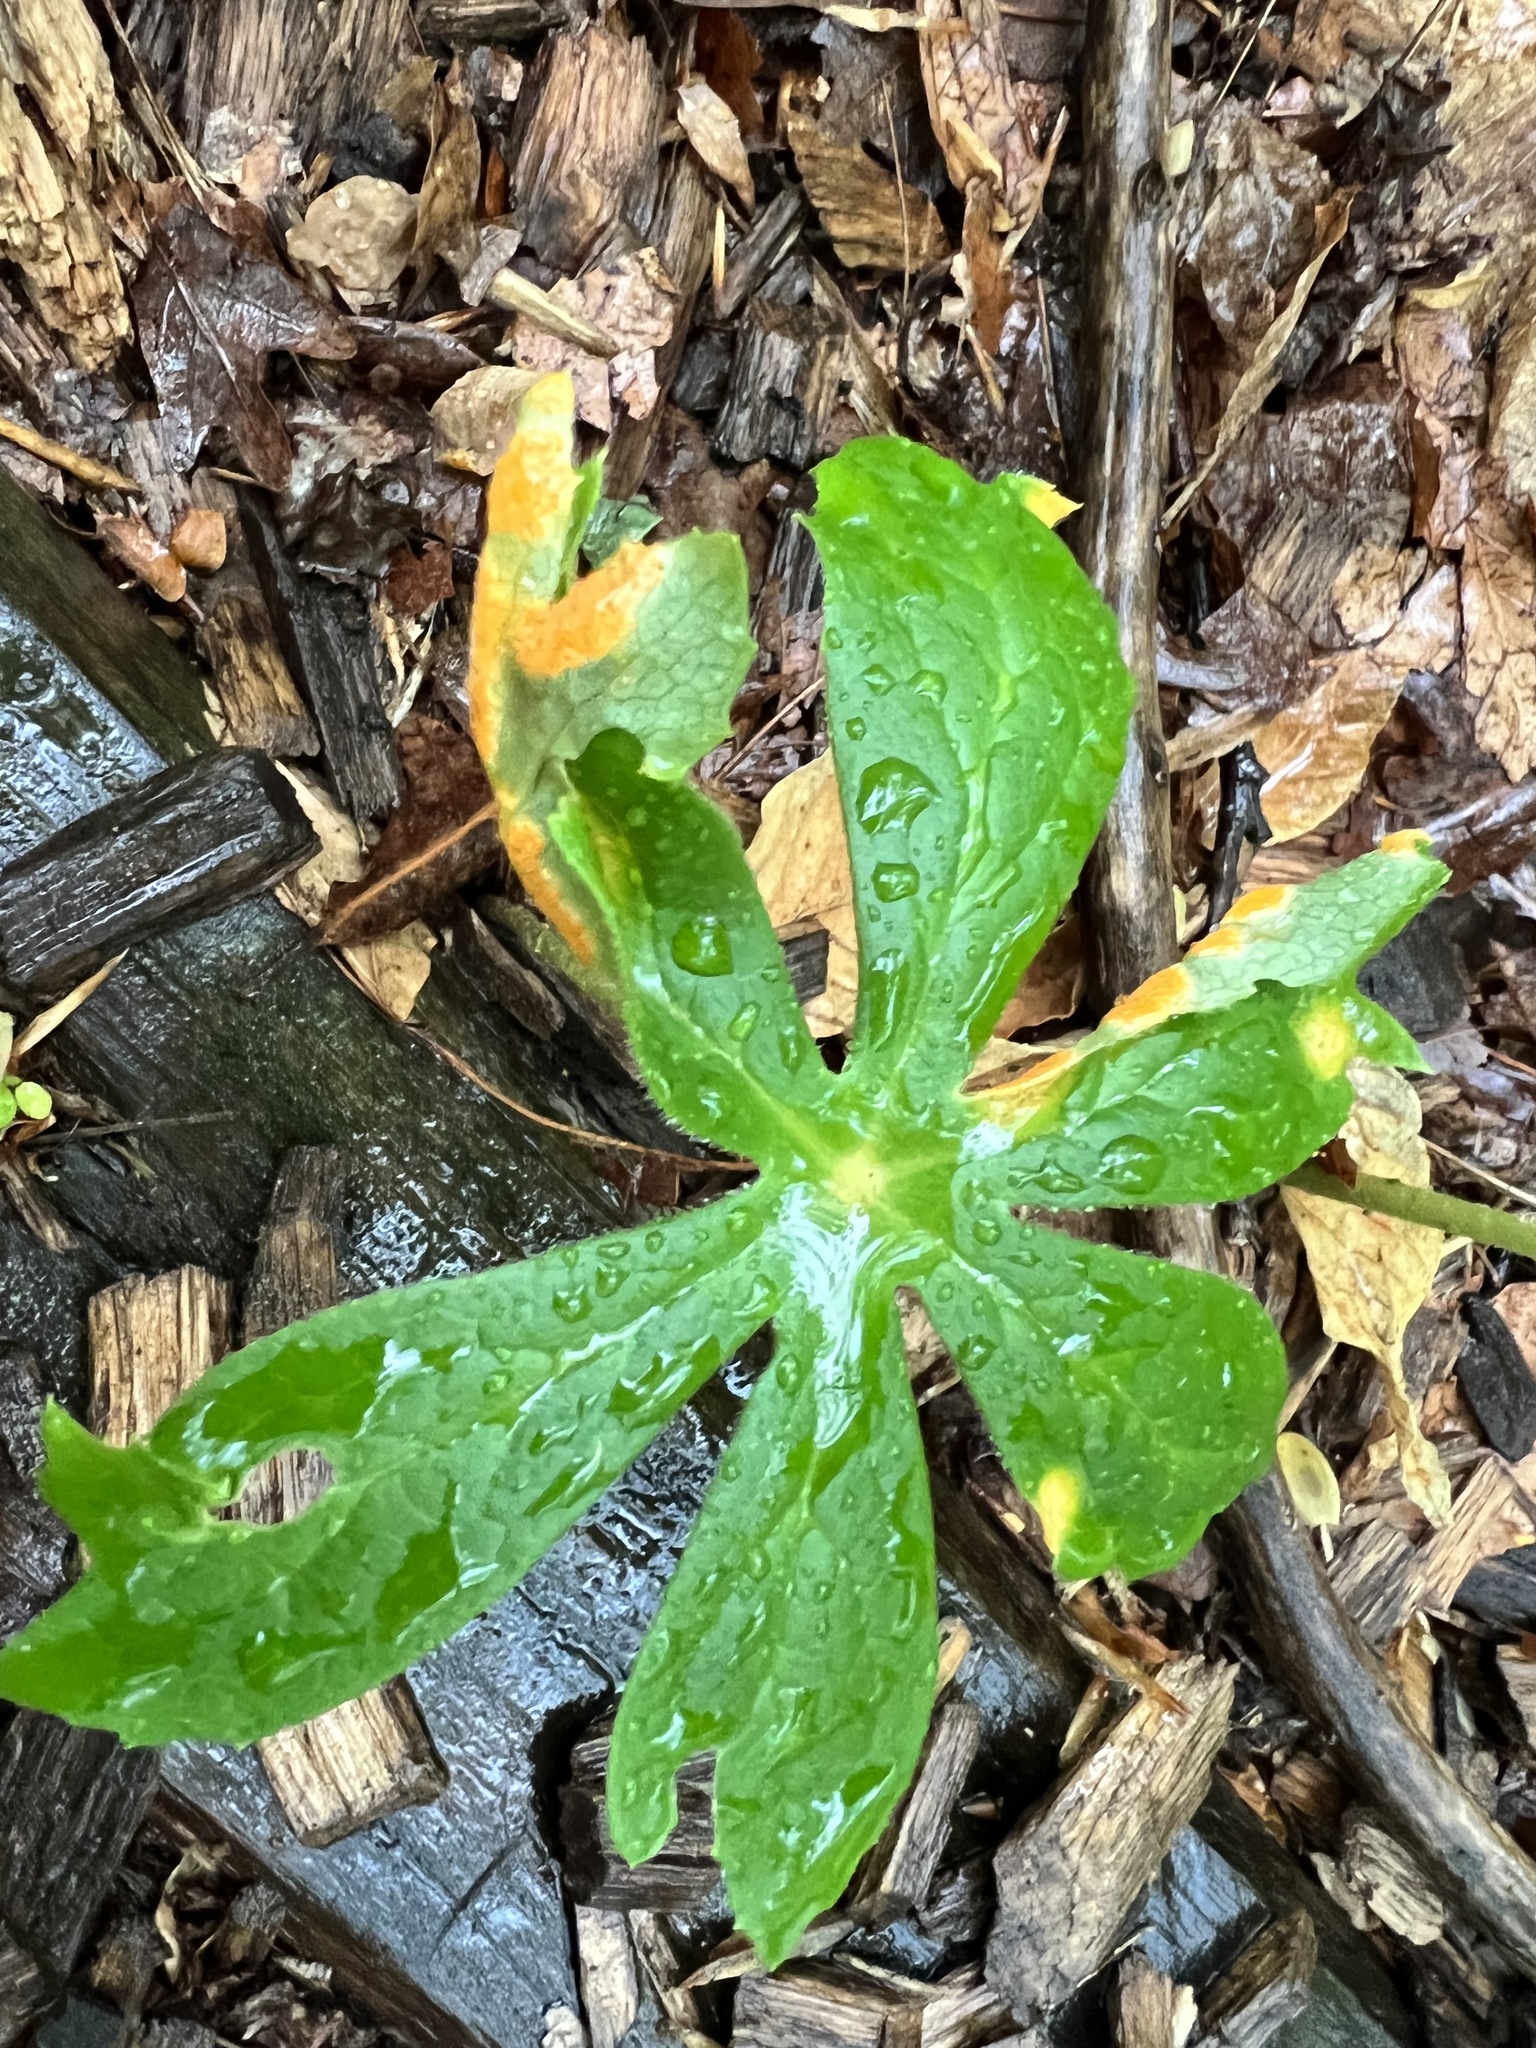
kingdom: Plantae
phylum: Tracheophyta
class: Magnoliopsida
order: Ranunculales
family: Berberidaceae
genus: Podophyllum
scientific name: Podophyllum peltatum
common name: Wild mandrake
